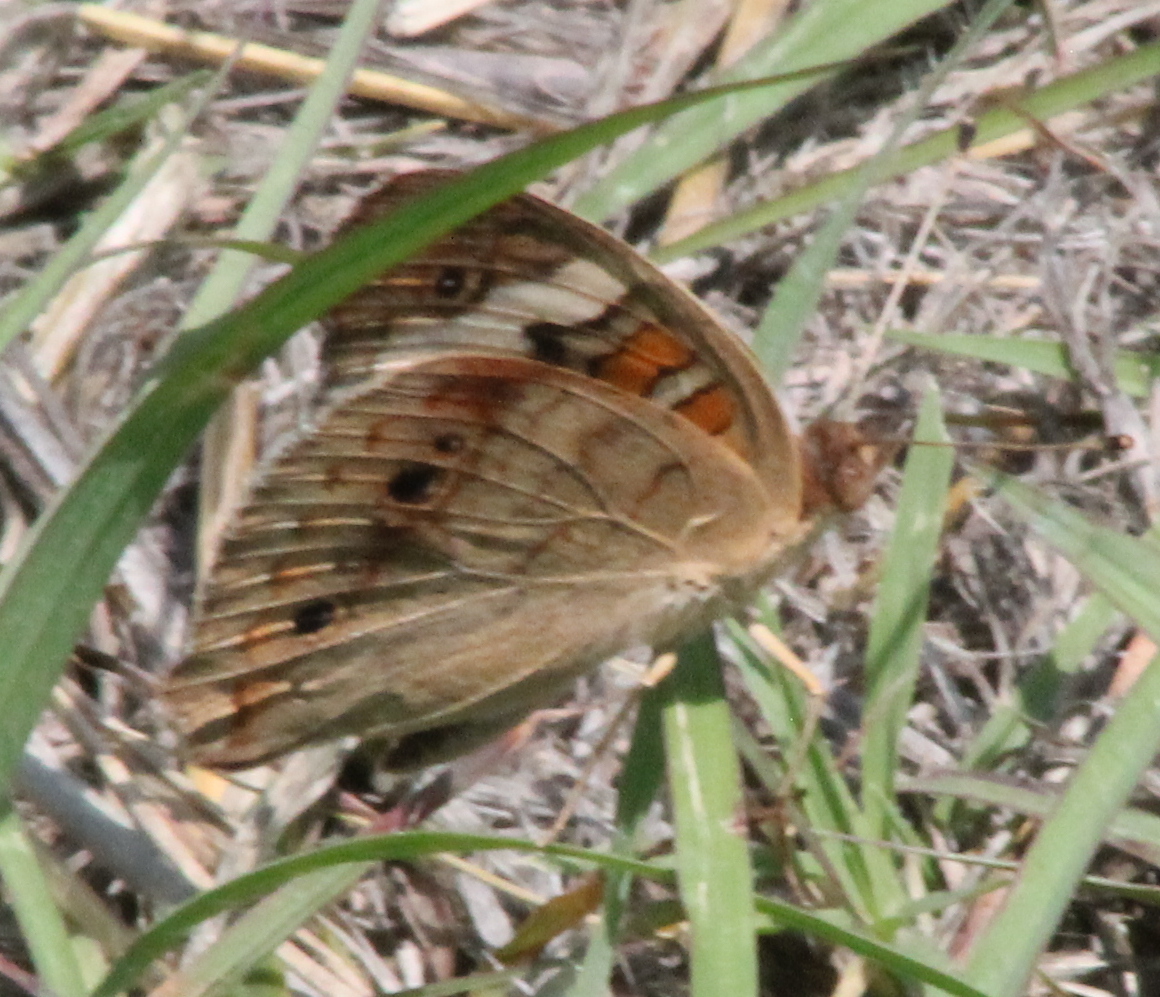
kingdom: Animalia
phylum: Arthropoda
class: Insecta
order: Lepidoptera
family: Nymphalidae
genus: Junonia
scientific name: Junonia coenia
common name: Common buckeye
